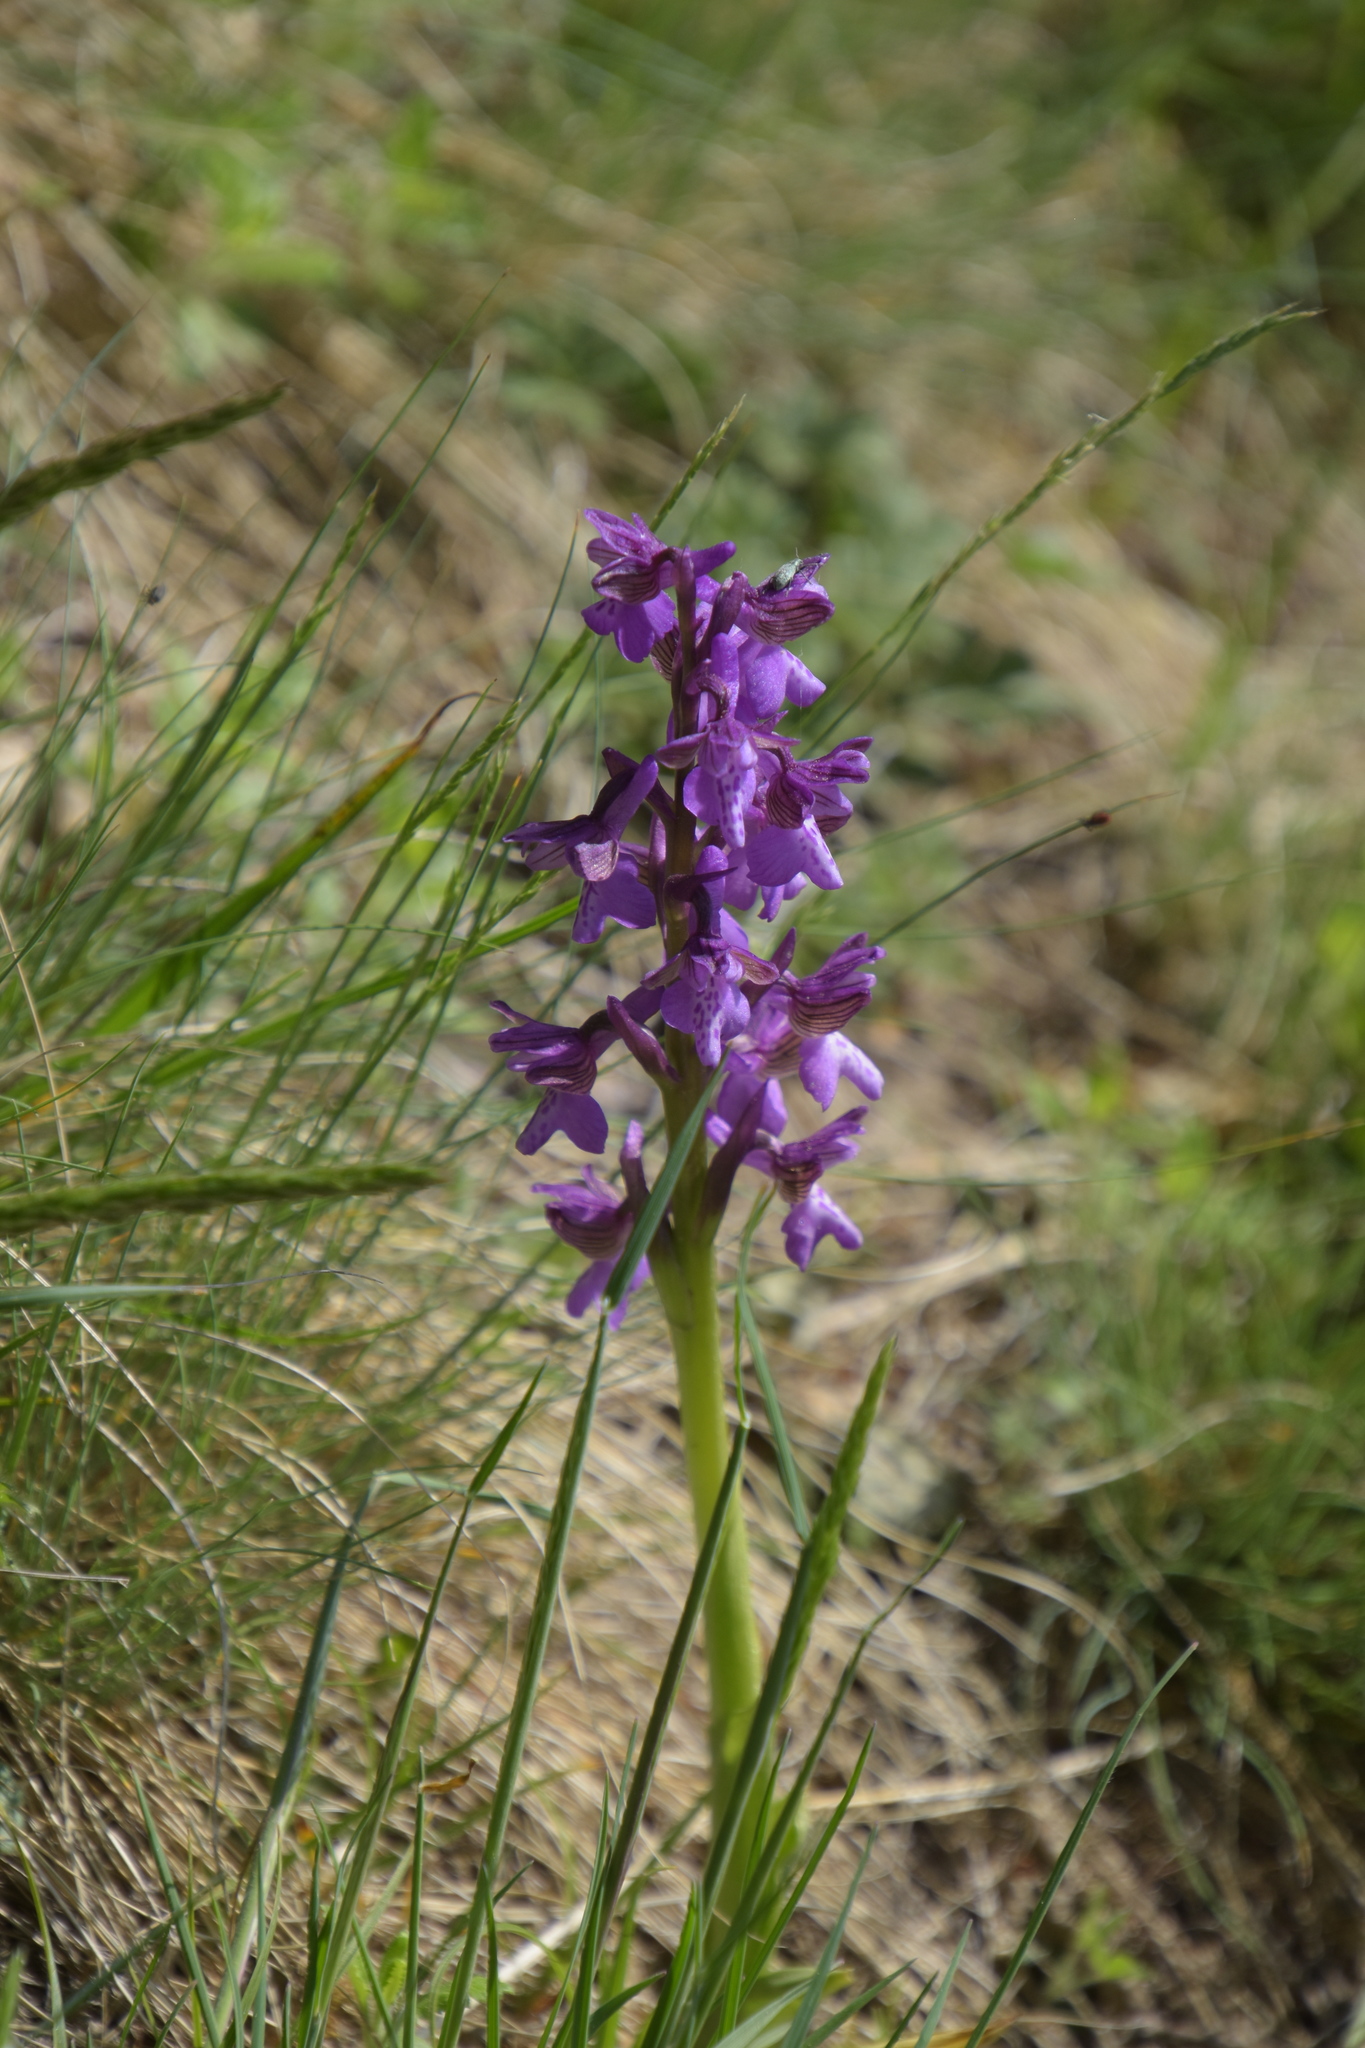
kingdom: Plantae
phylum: Tracheophyta
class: Liliopsida
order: Asparagales
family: Orchidaceae
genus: Anacamptis
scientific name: Anacamptis morio
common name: Green-winged orchid
